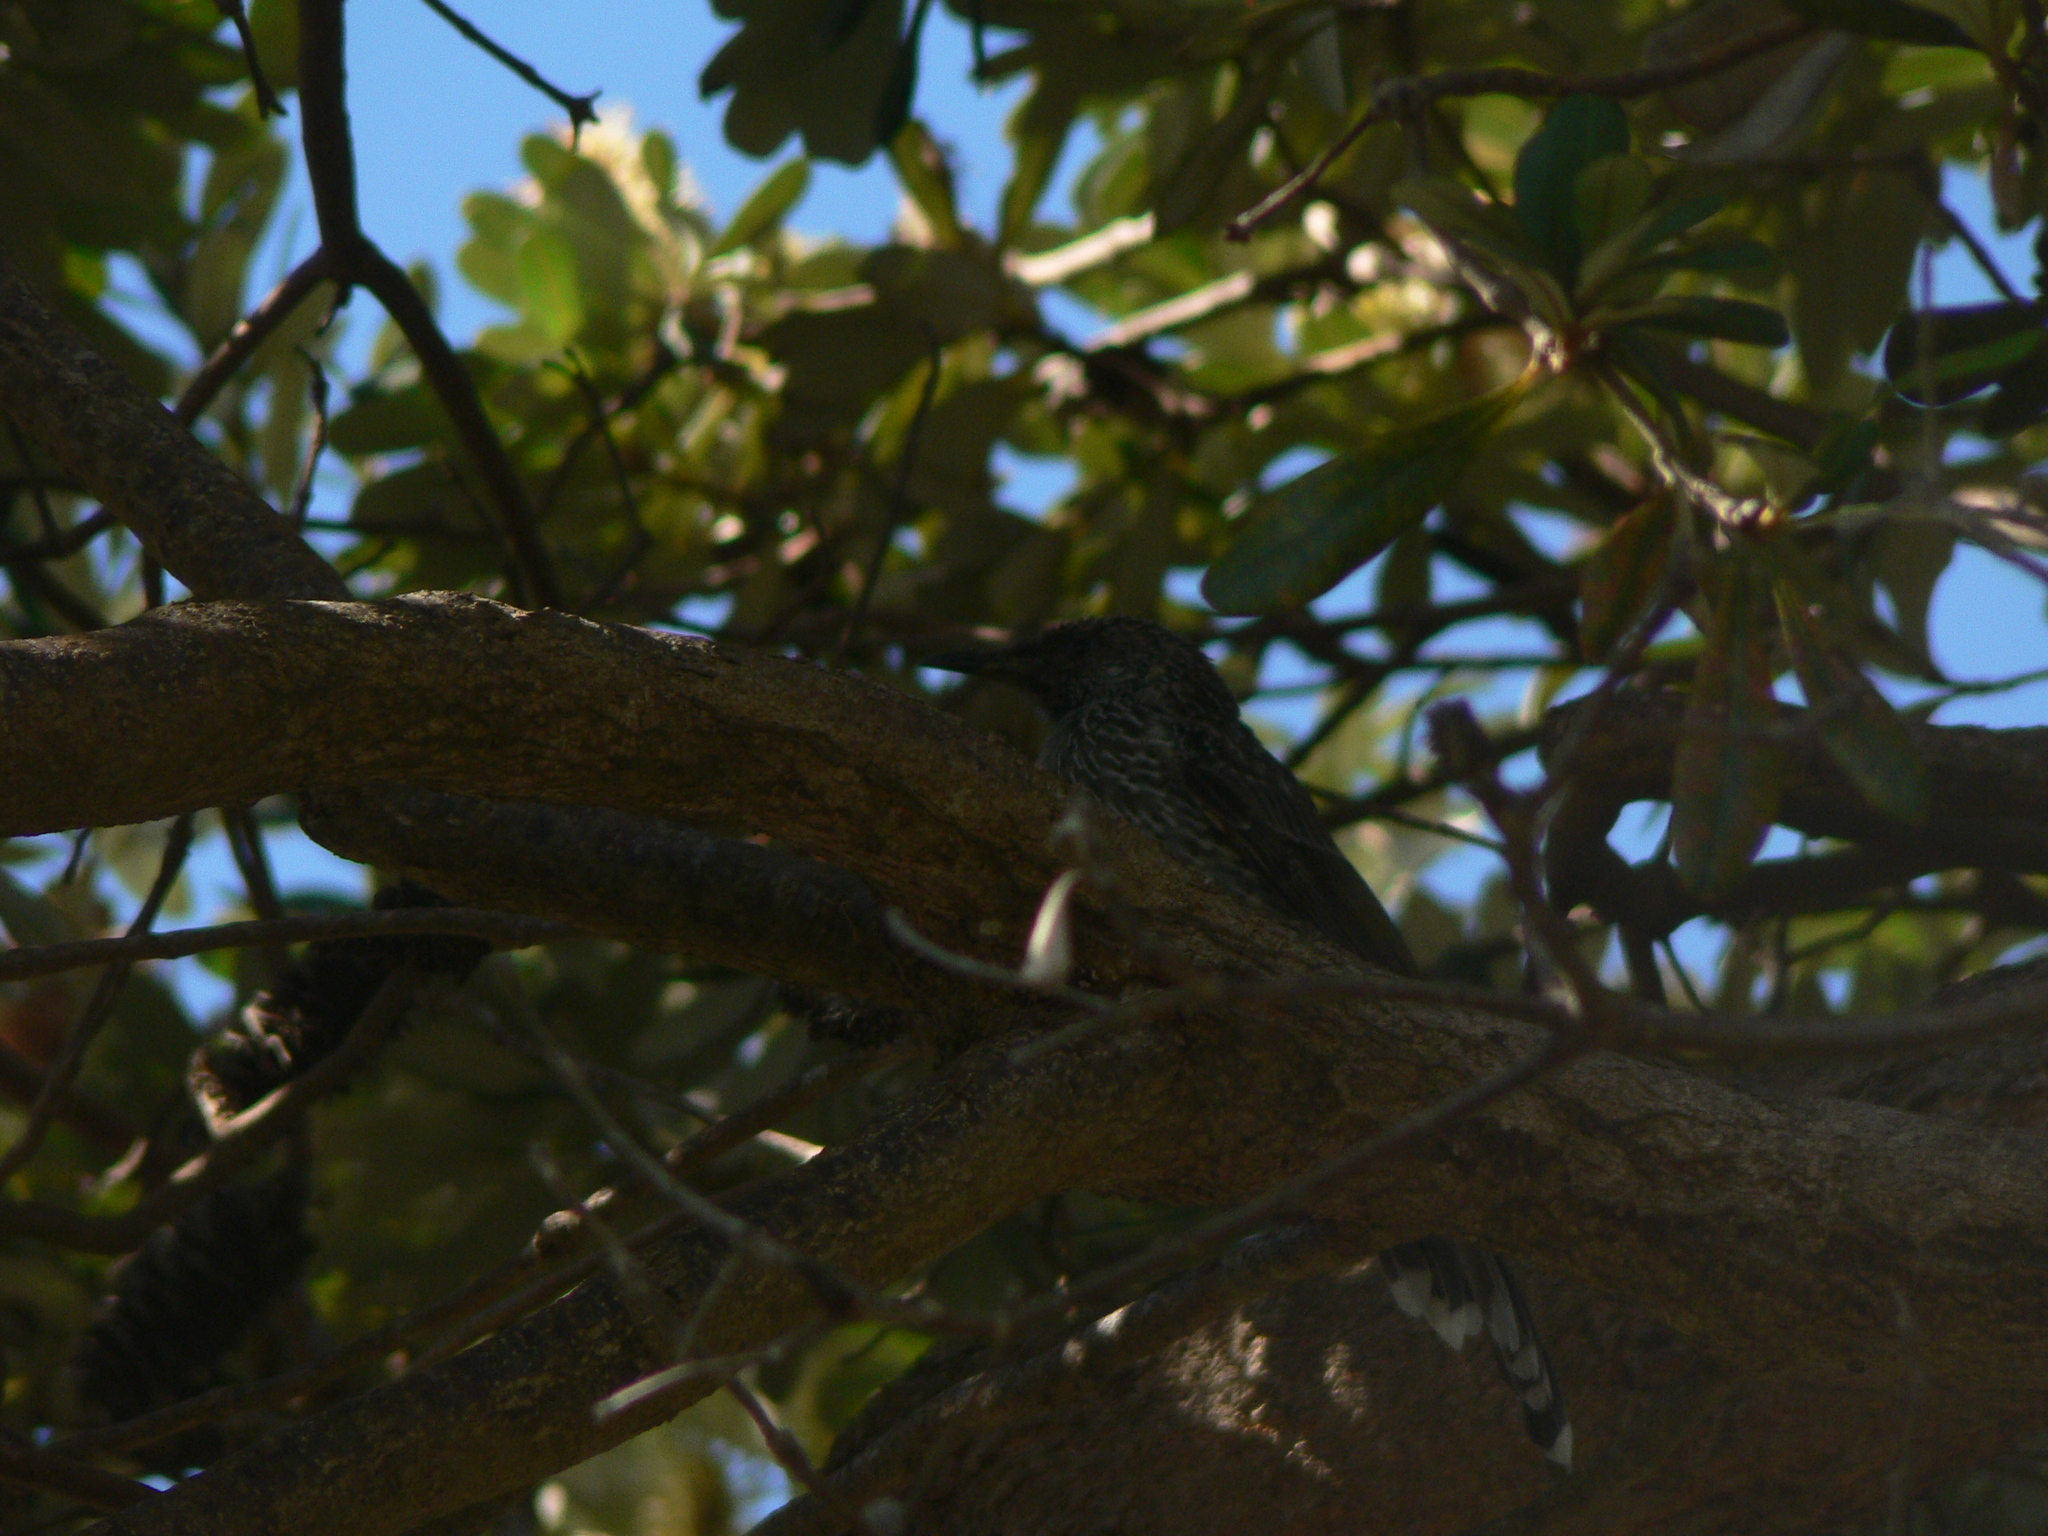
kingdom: Animalia
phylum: Chordata
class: Aves
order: Passeriformes
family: Meliphagidae
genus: Anthochaera
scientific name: Anthochaera chrysoptera
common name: Little wattlebird
